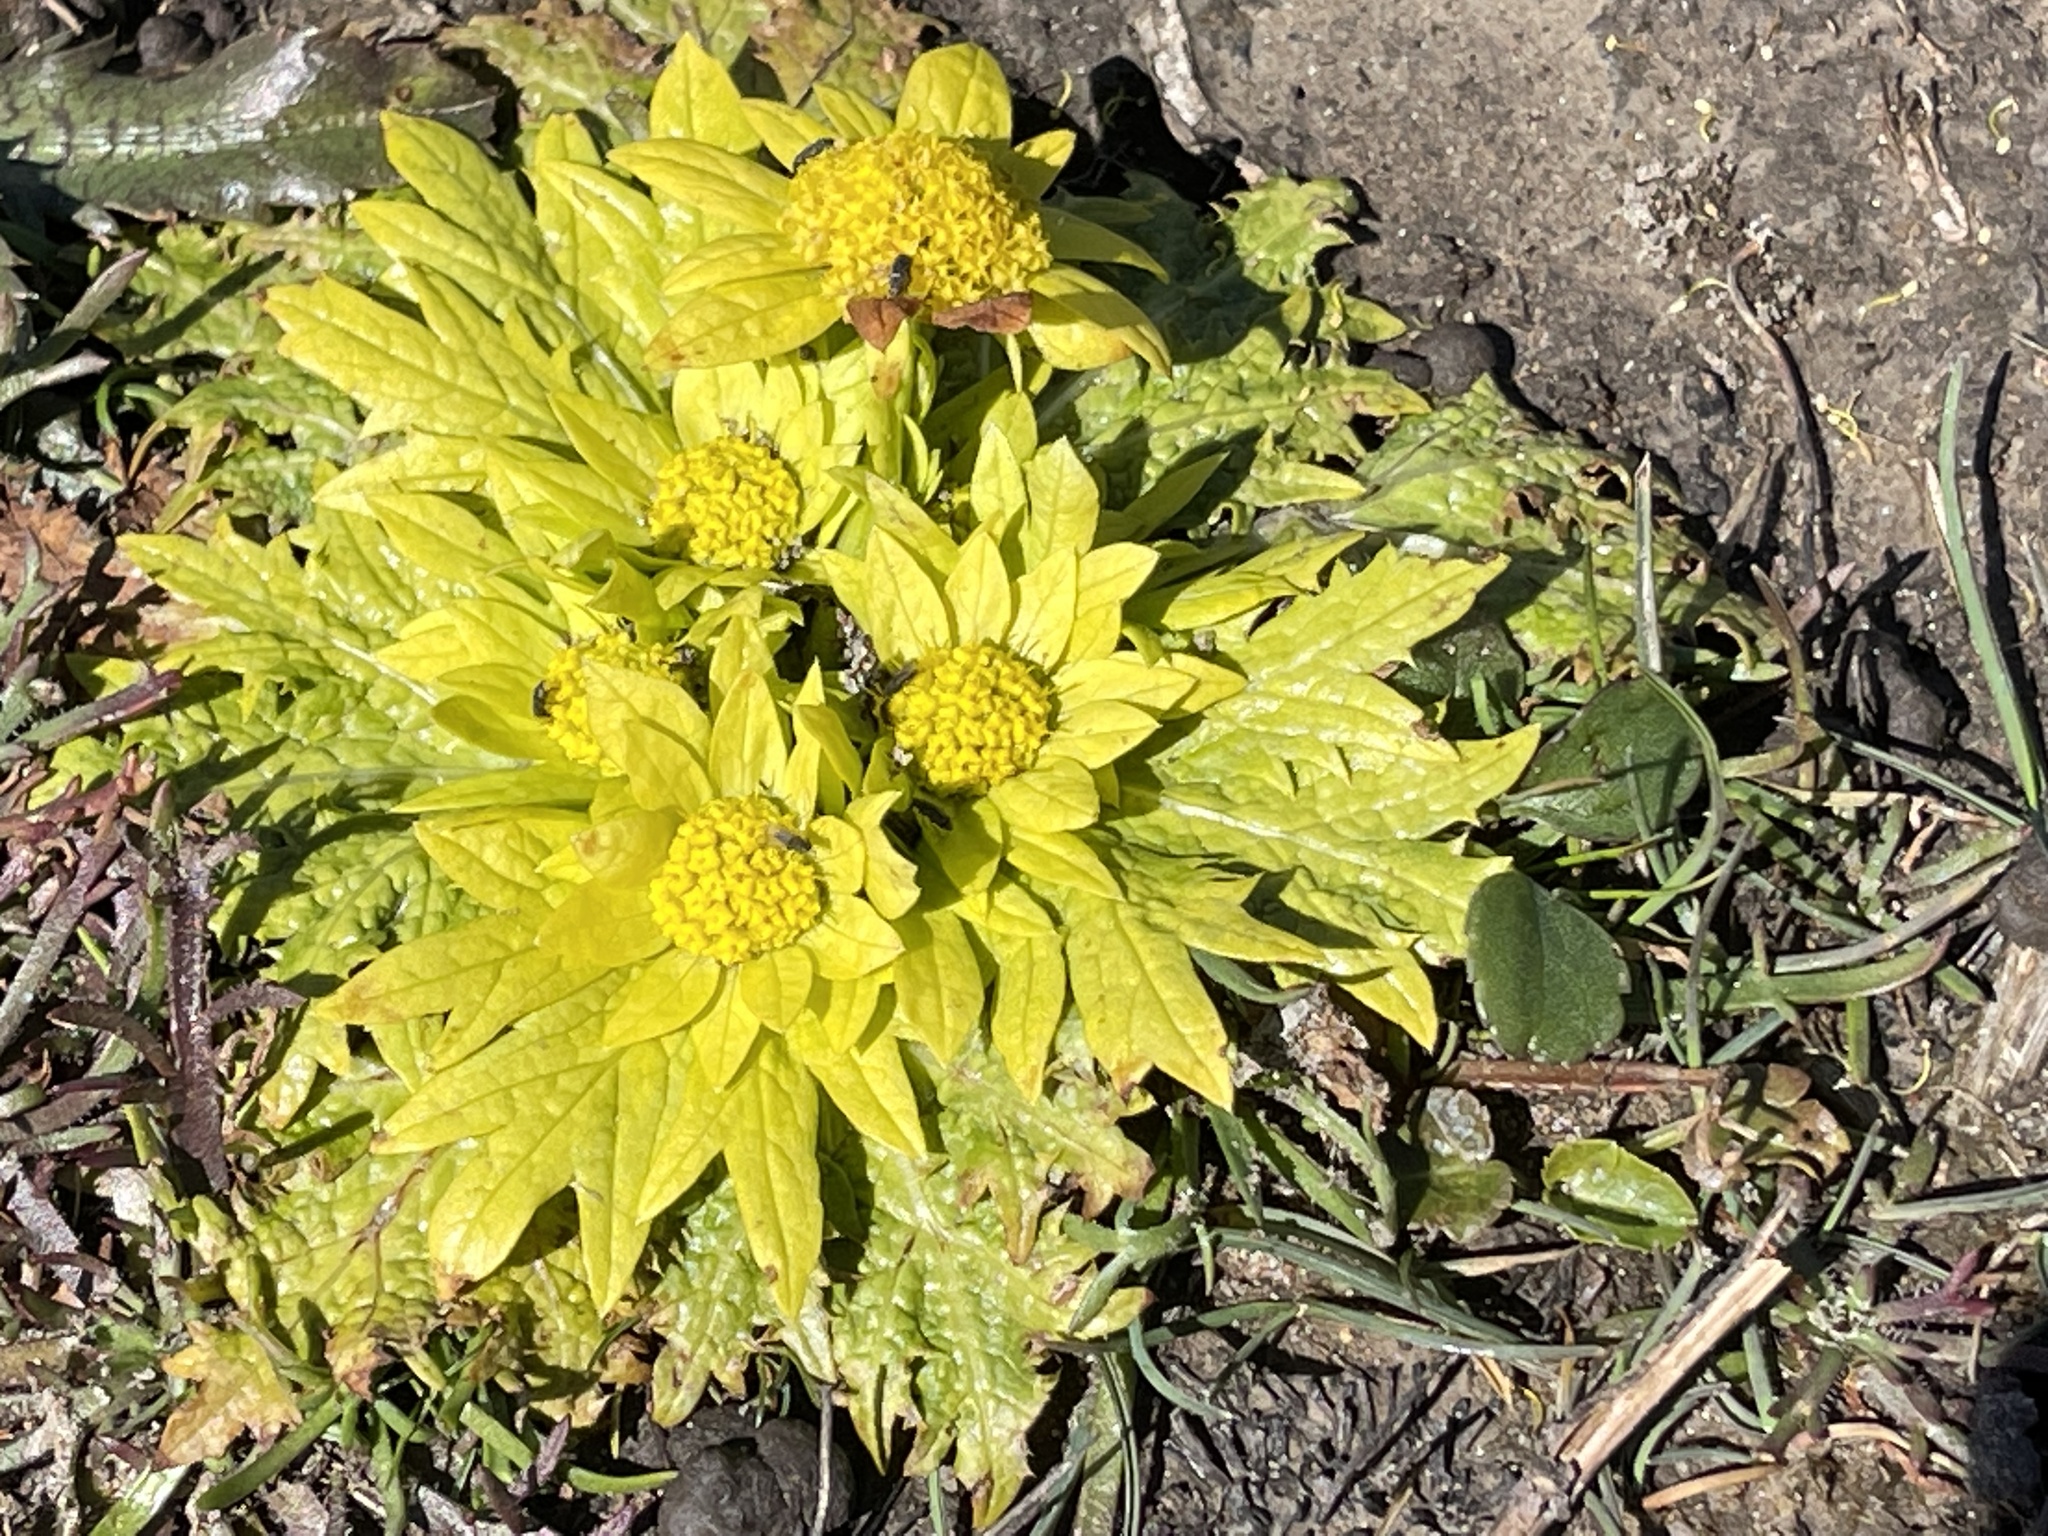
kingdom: Plantae
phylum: Tracheophyta
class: Magnoliopsida
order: Apiales
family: Apiaceae
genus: Sanicula
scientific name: Sanicula arctopoides
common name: Footsteps-of-spring
